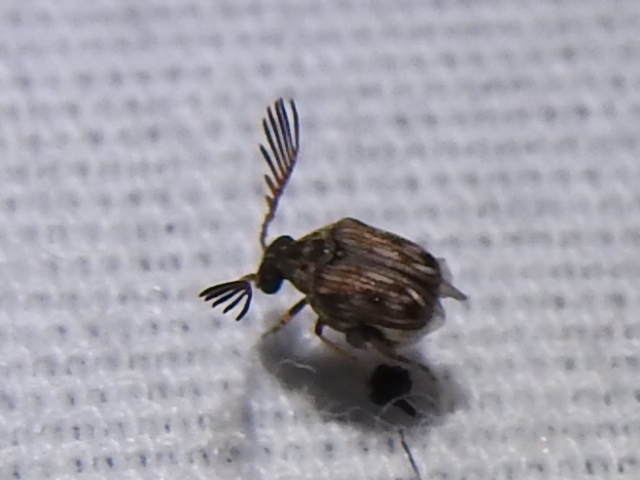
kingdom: Animalia
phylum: Arthropoda
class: Insecta
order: Coleoptera
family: Chrysomelidae
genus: Megacerus
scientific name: Megacerus cubiculus
